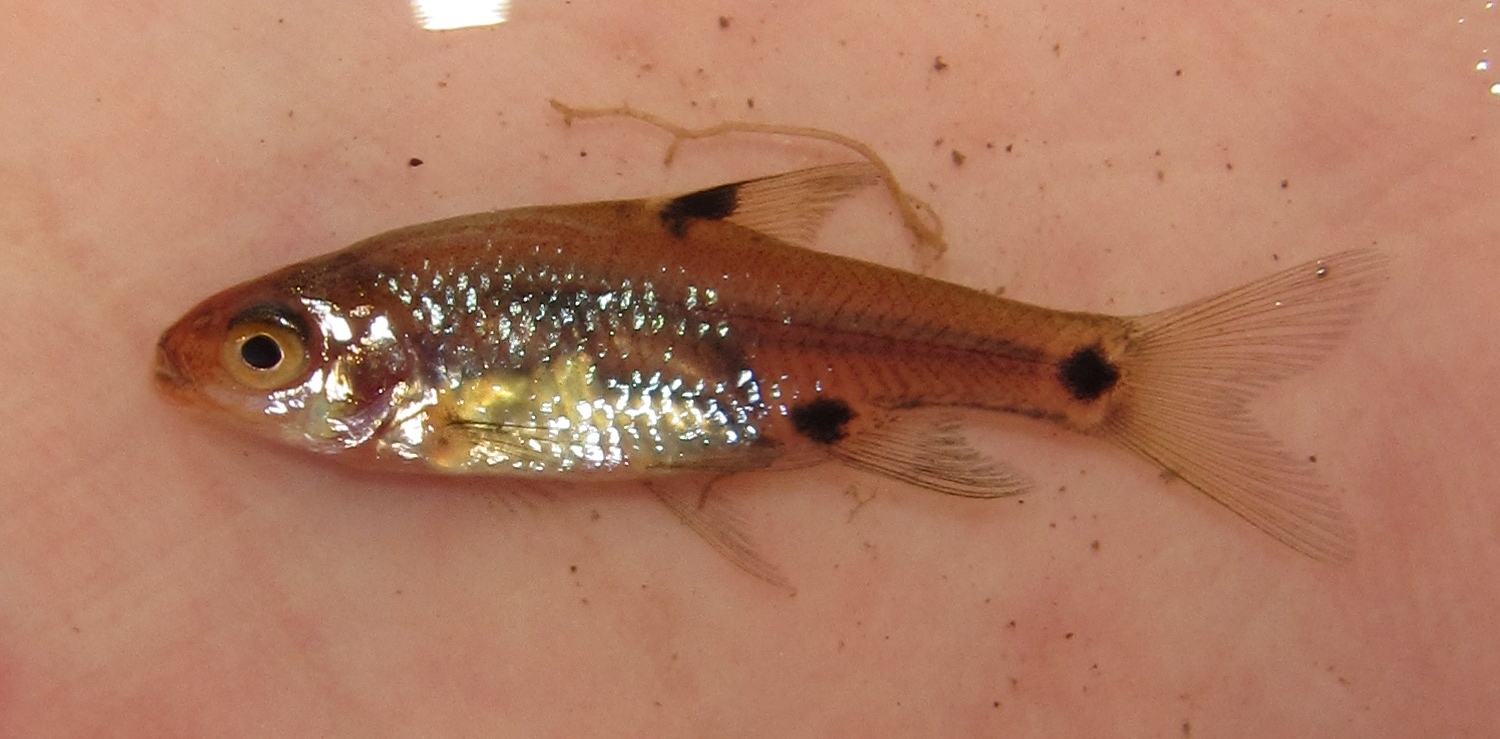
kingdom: Animalia
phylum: Chordata
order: Cypriniformes
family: Cyprinidae
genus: Enteromius
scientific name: Enteromius haasianus
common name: Sickle-fin barb
